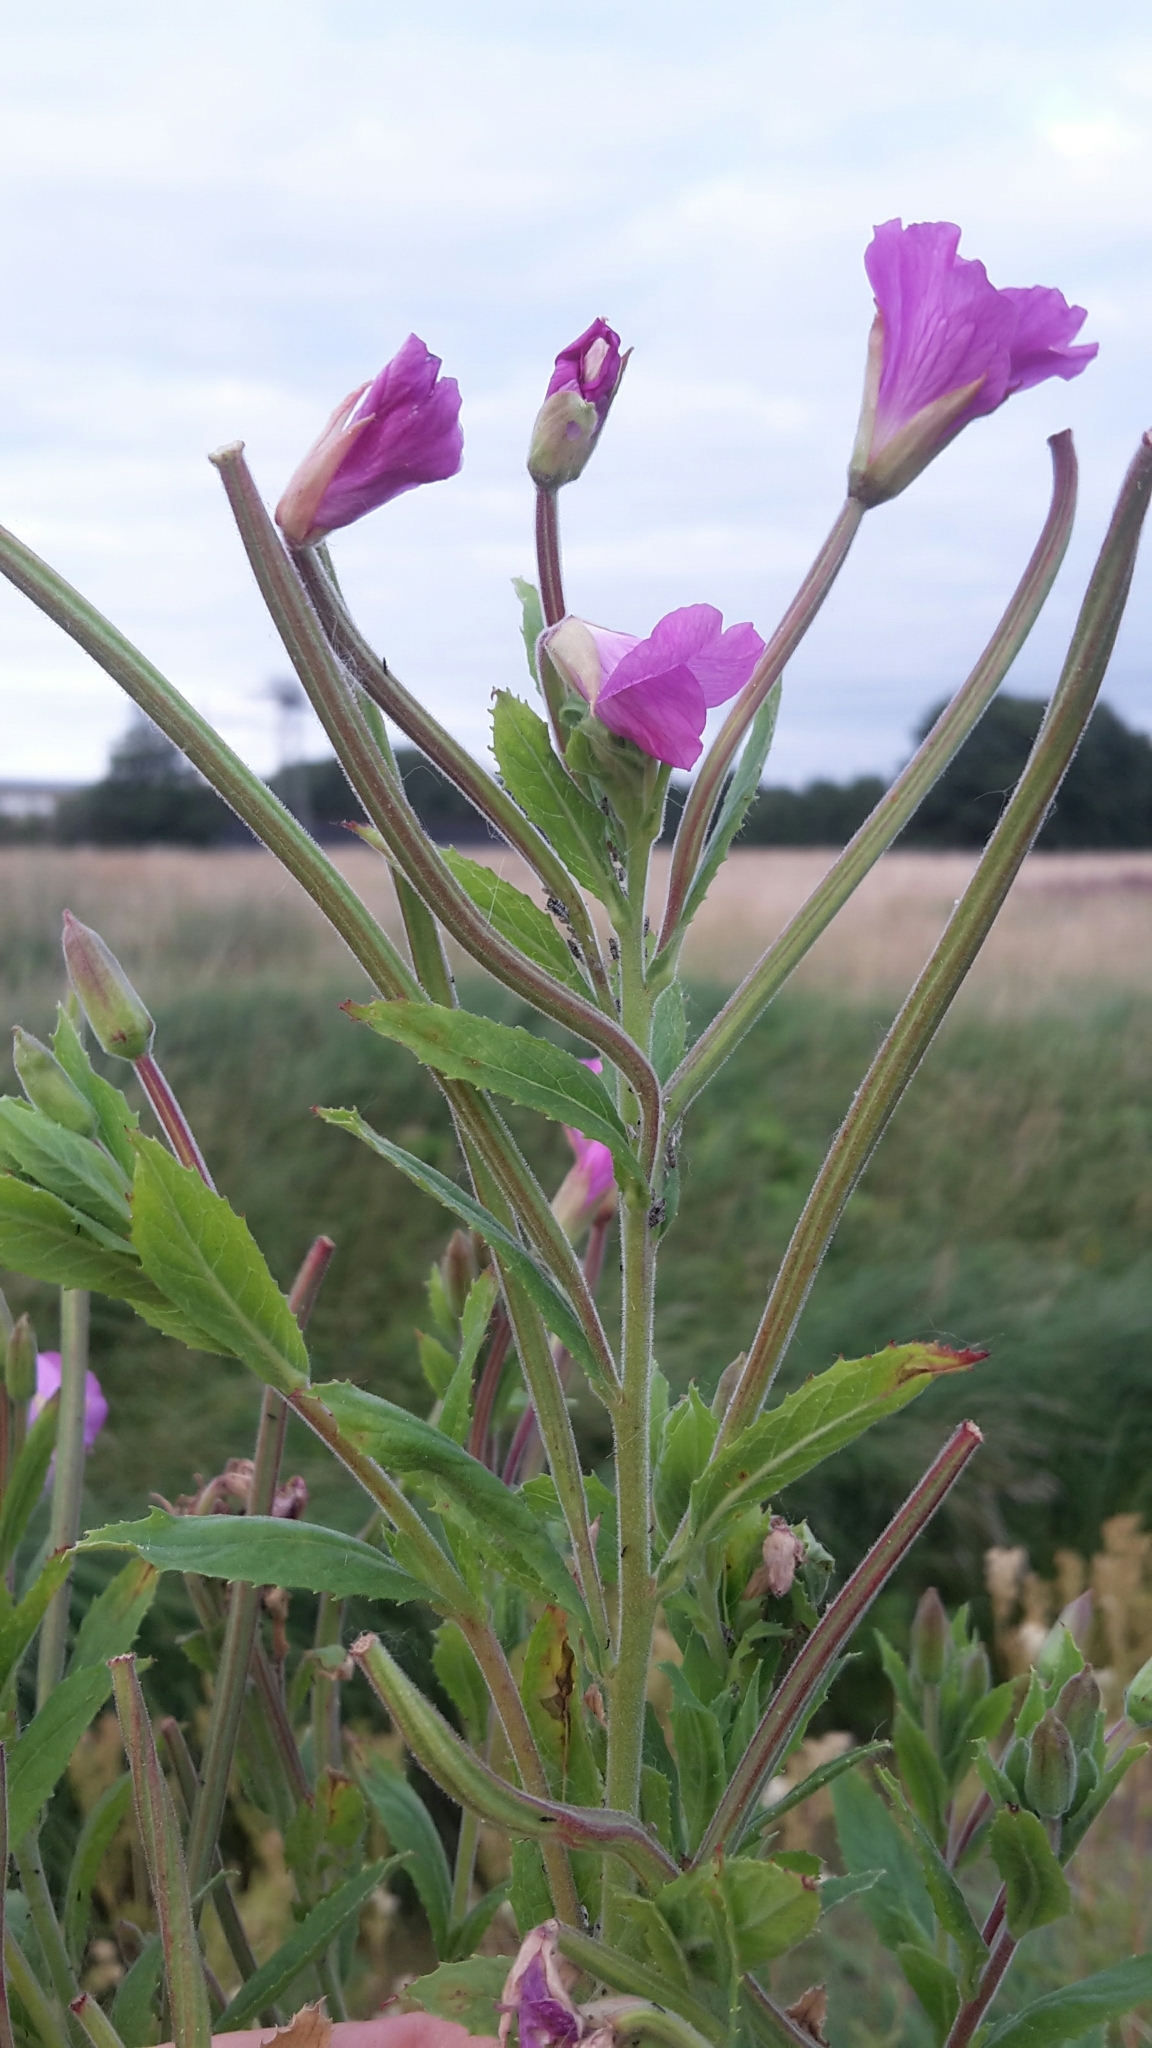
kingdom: Plantae
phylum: Tracheophyta
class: Magnoliopsida
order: Myrtales
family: Onagraceae
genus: Epilobium
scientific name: Epilobium hirsutum
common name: Great willowherb
